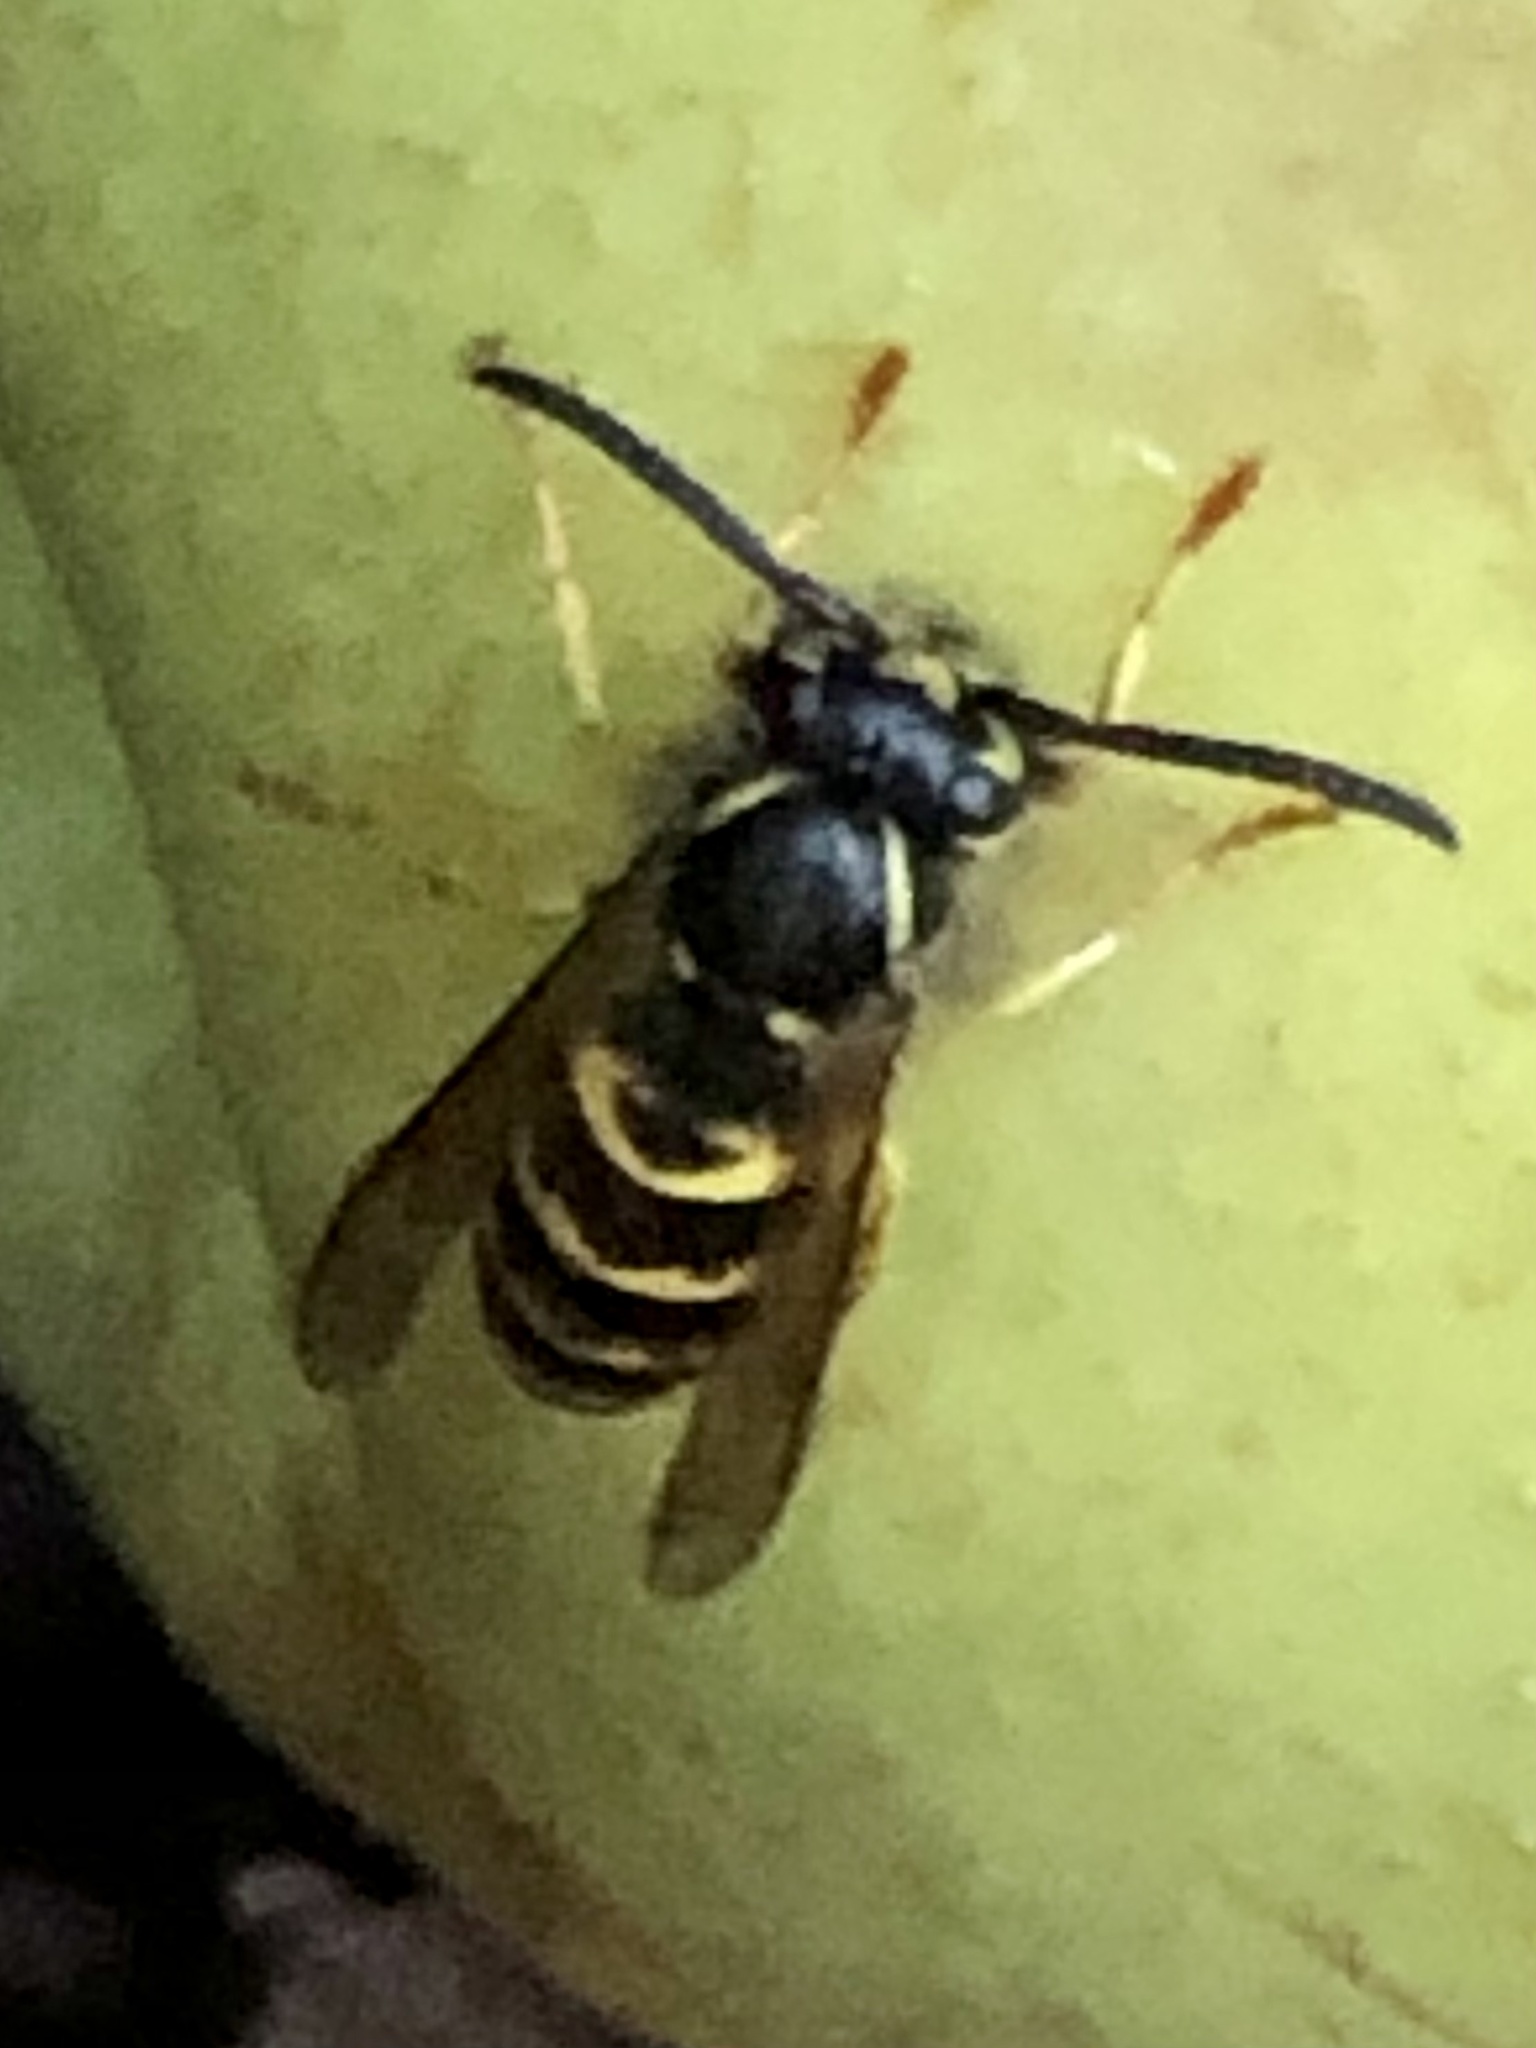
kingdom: Animalia
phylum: Arthropoda
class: Insecta
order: Hymenoptera
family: Vespidae
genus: Vespula
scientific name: Vespula alascensis
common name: Alaska yellowjacket
